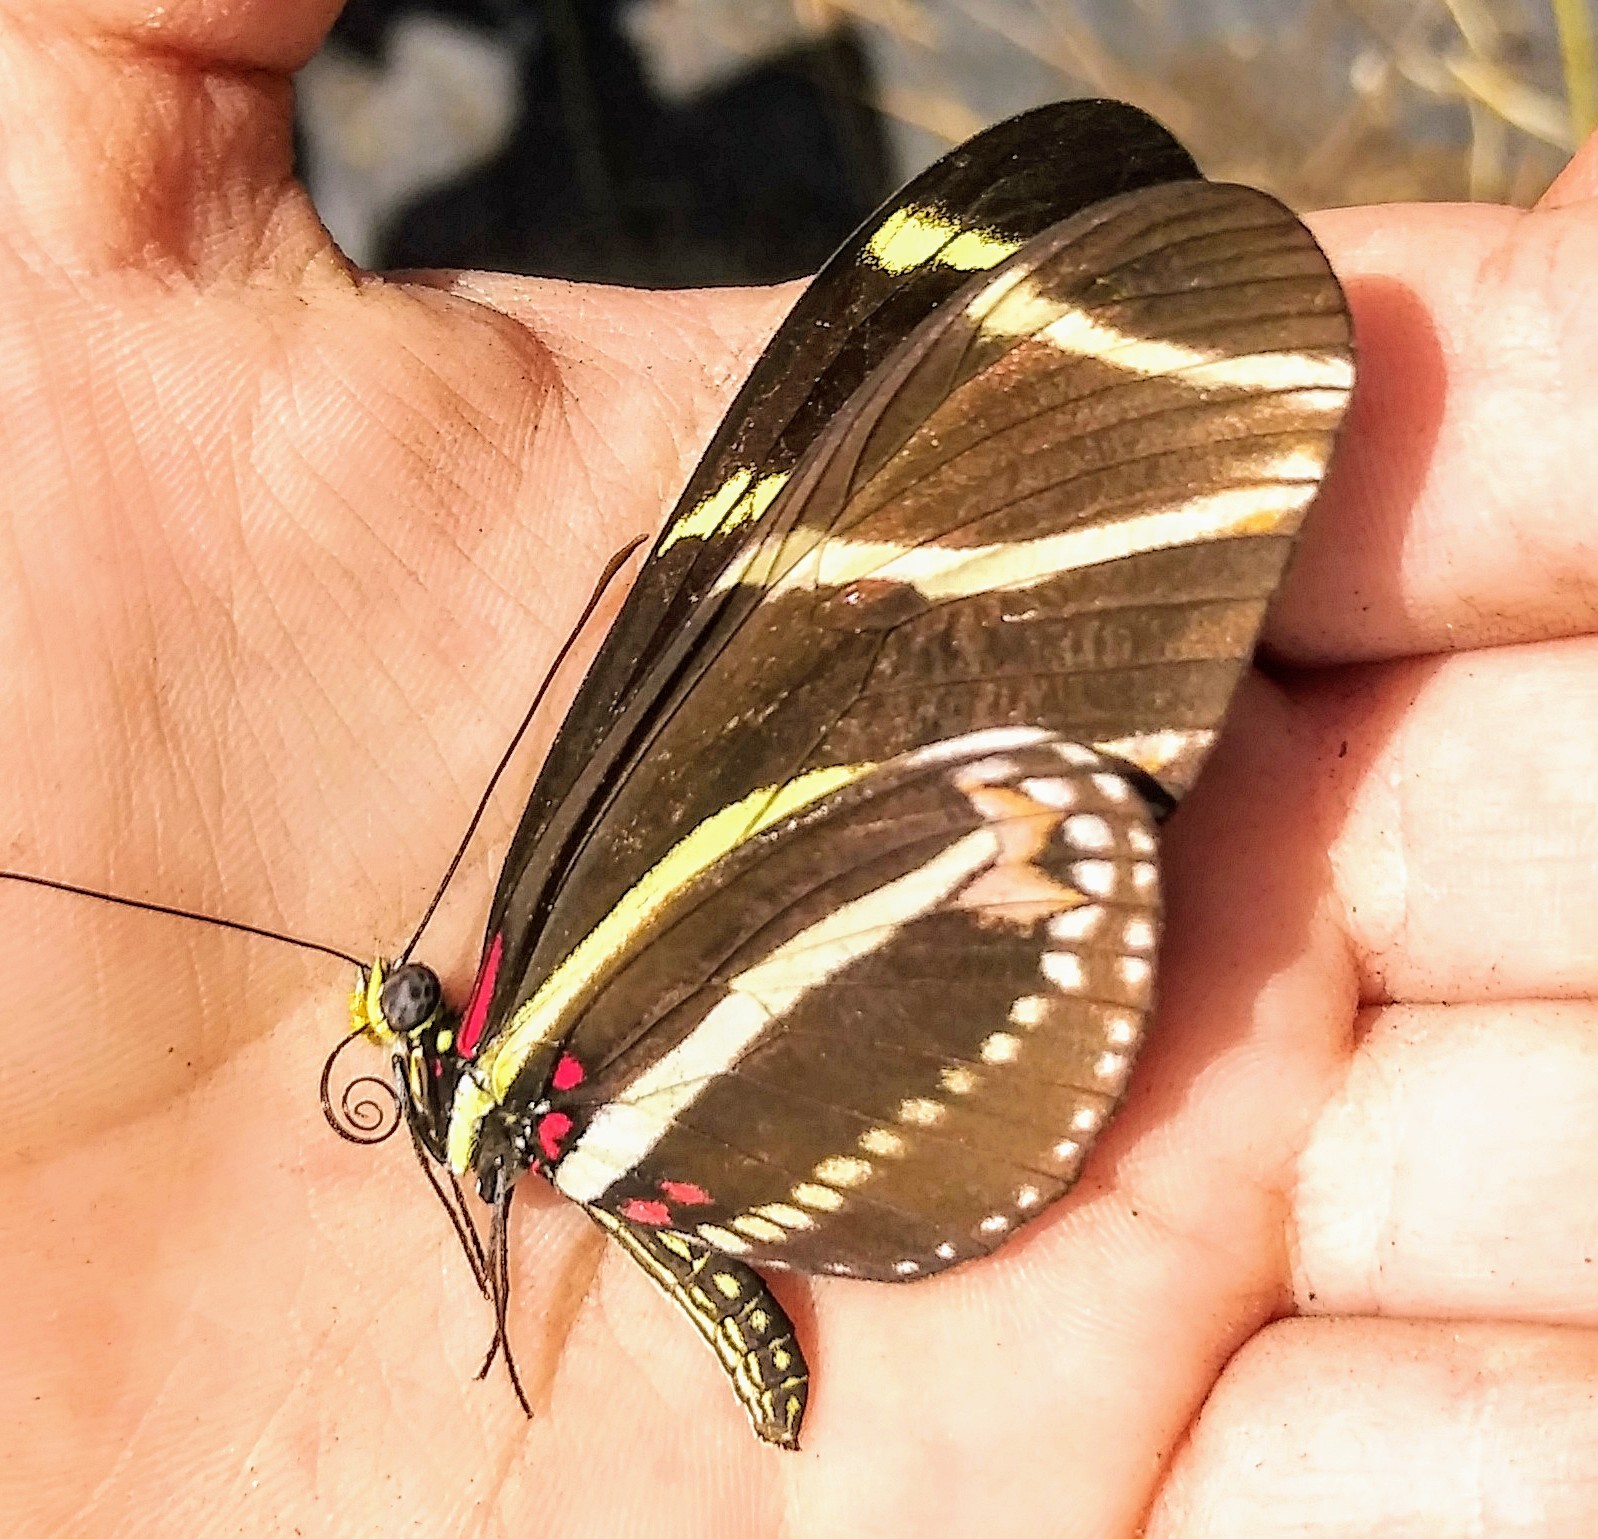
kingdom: Animalia
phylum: Arthropoda
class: Insecta
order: Lepidoptera
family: Nymphalidae
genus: Heliconius
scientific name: Heliconius charithonia
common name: Zebra long wing
